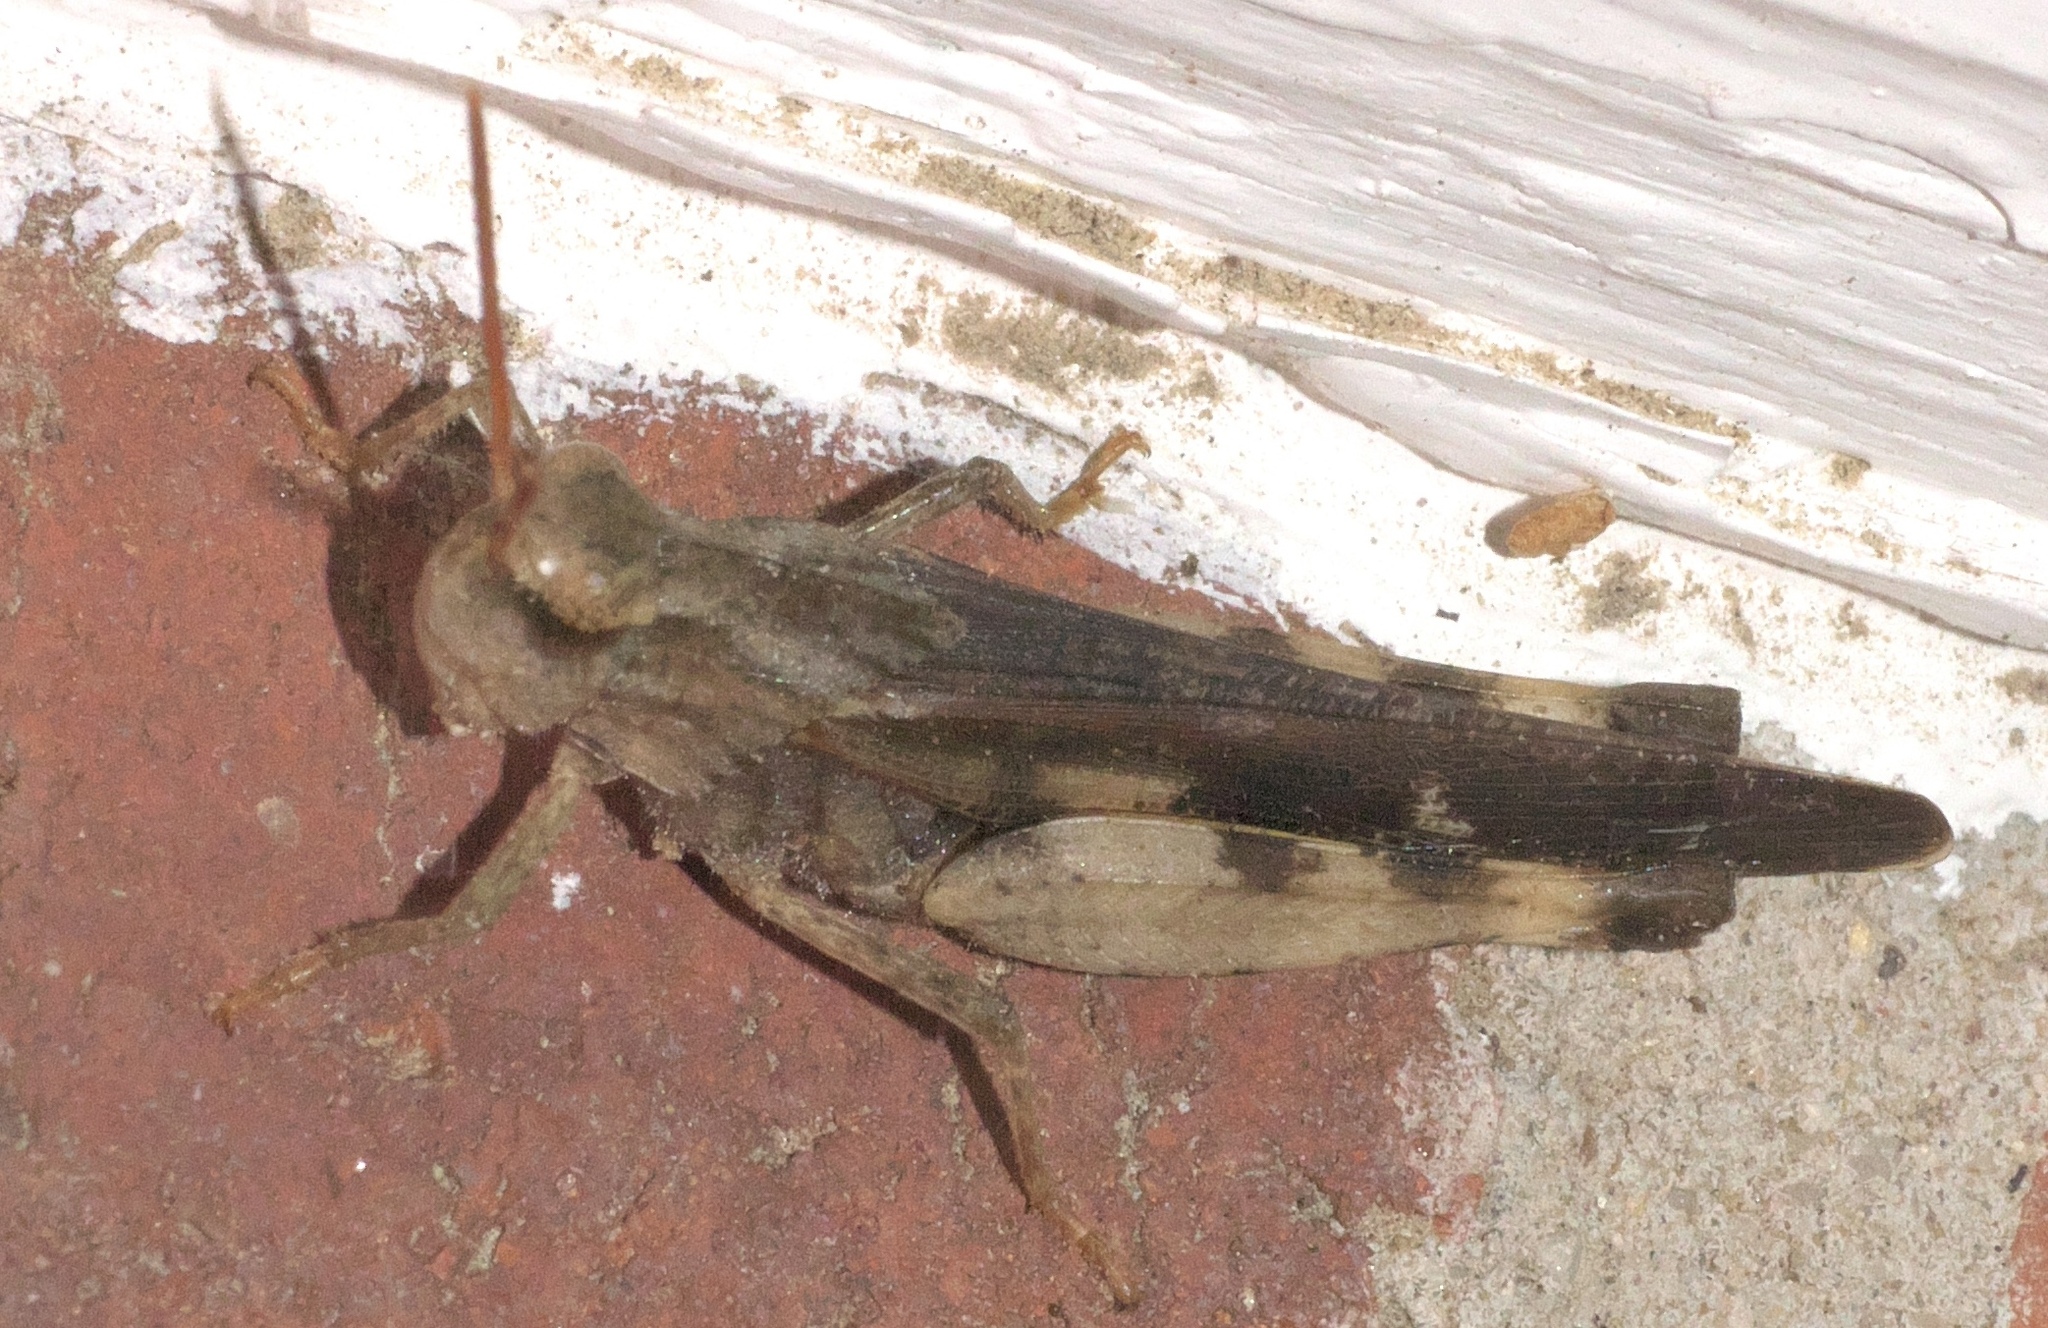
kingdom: Animalia
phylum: Arthropoda
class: Insecta
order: Orthoptera
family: Acrididae
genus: Chortophaga
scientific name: Chortophaga viridifasciata
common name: Green-striped grasshopper
